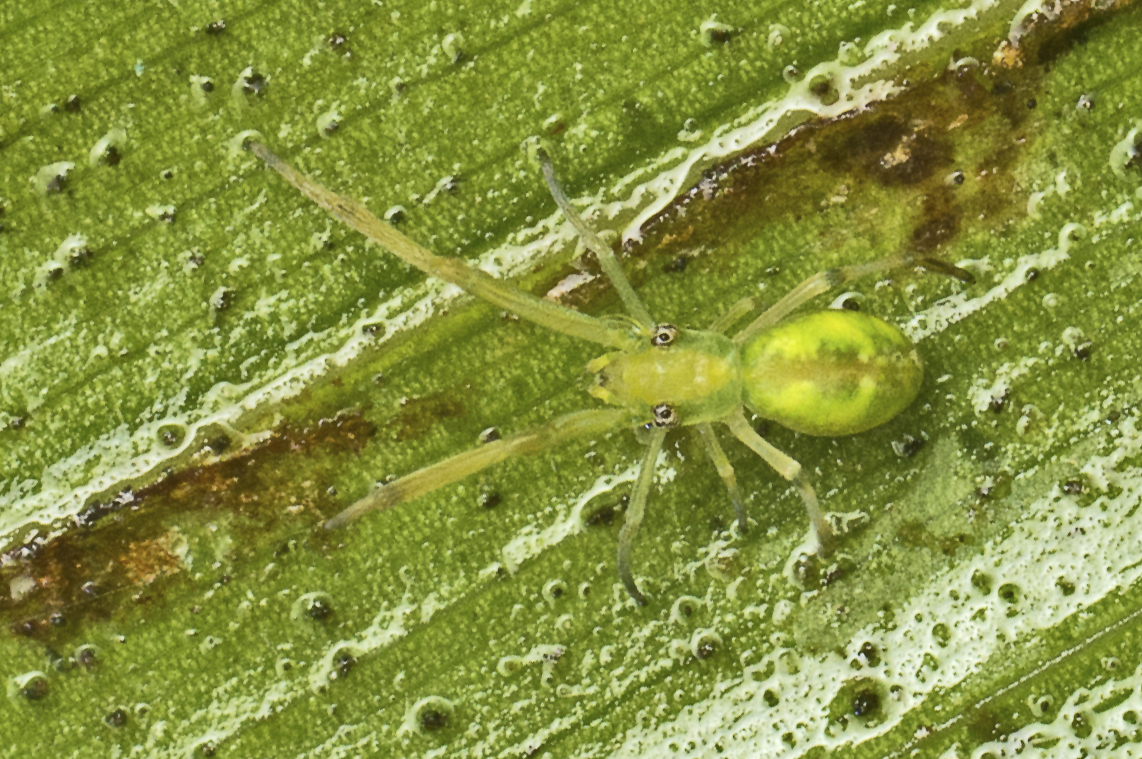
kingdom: Animalia
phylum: Arthropoda
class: Arachnida
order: Araneae
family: Uloboridae
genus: Miagrammopes
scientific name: Miagrammopes flavus
